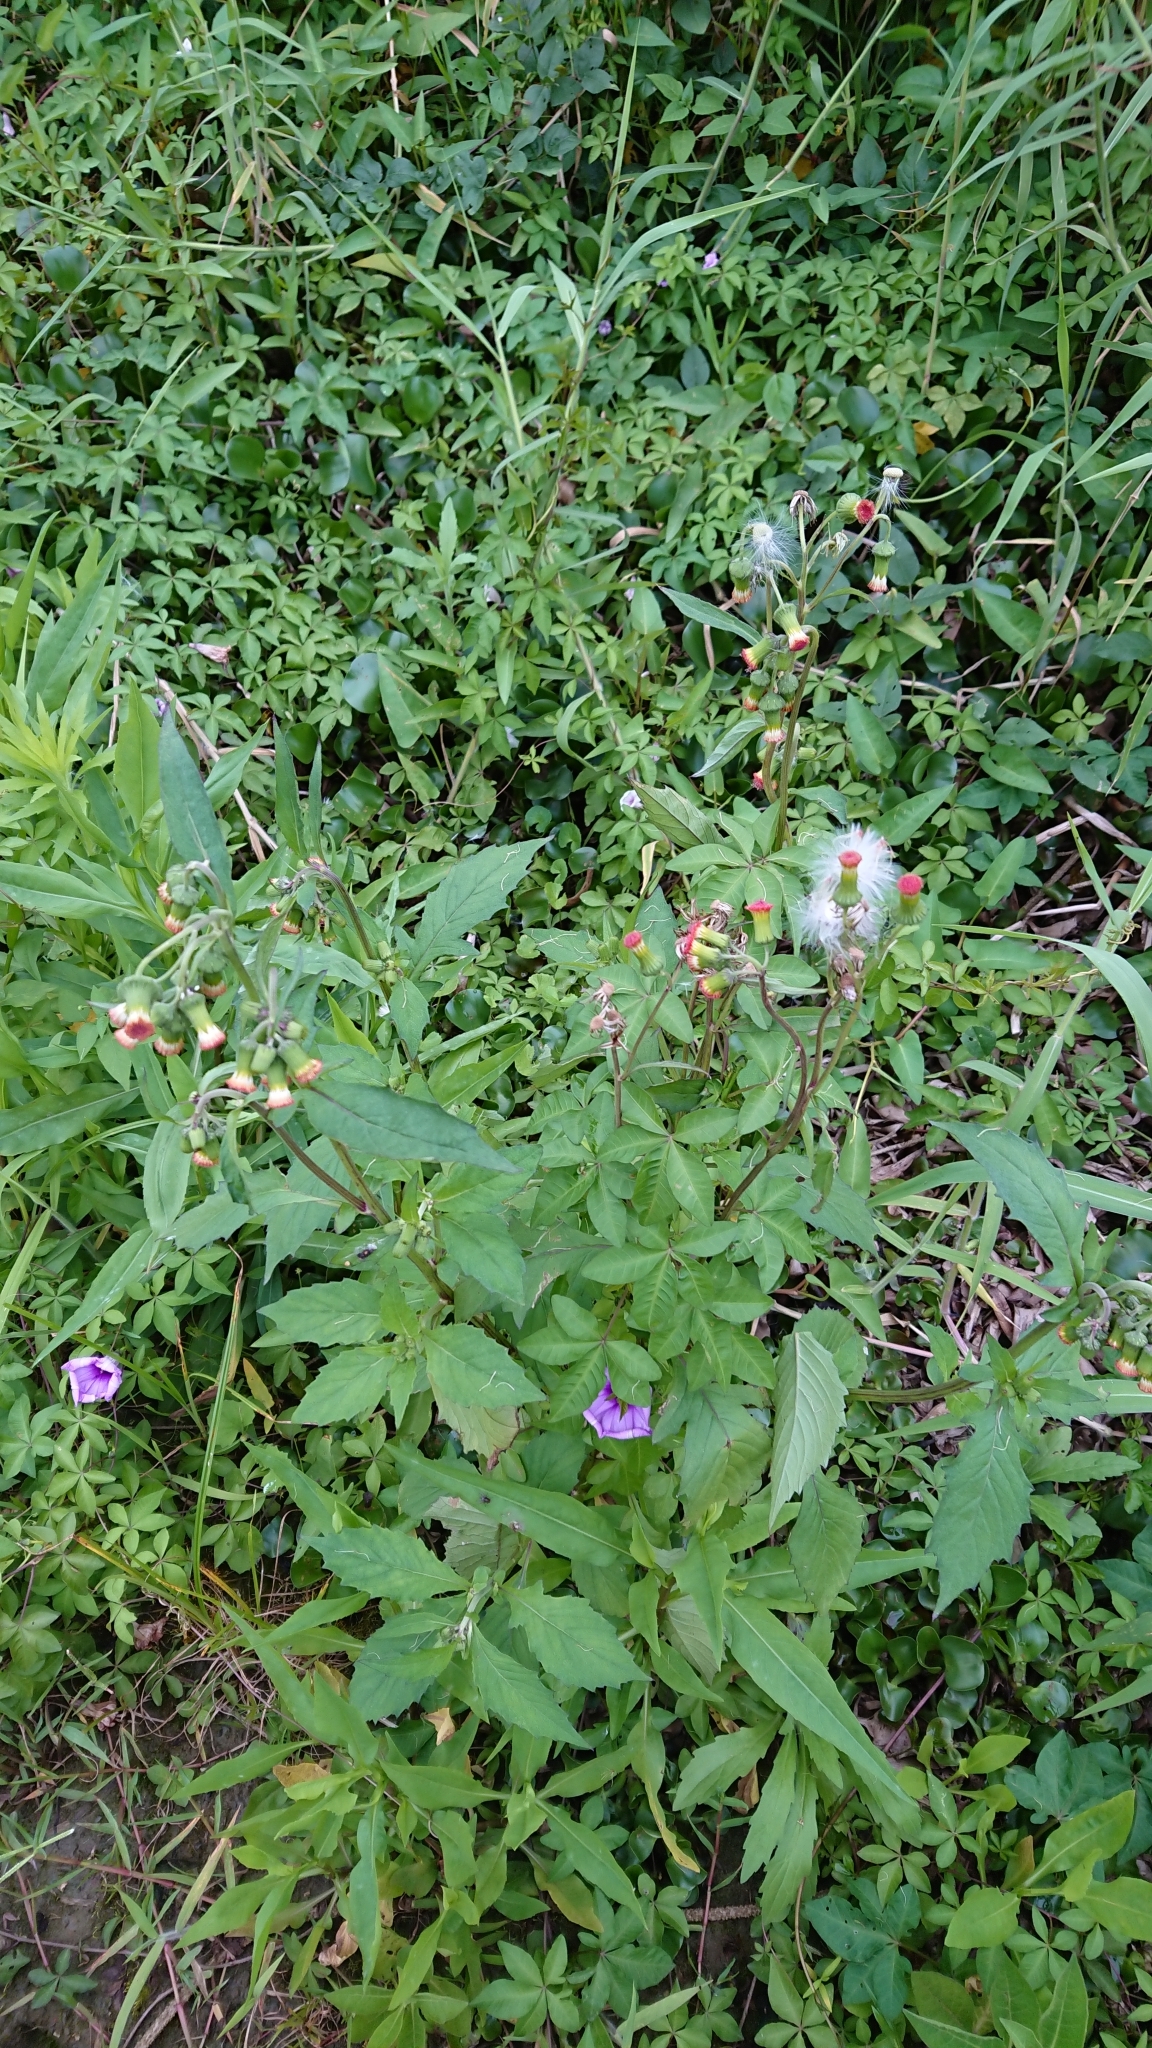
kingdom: Plantae
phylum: Tracheophyta
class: Magnoliopsida
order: Asterales
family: Asteraceae
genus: Crassocephalum
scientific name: Crassocephalum crepidioides
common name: Redflower ragleaf
